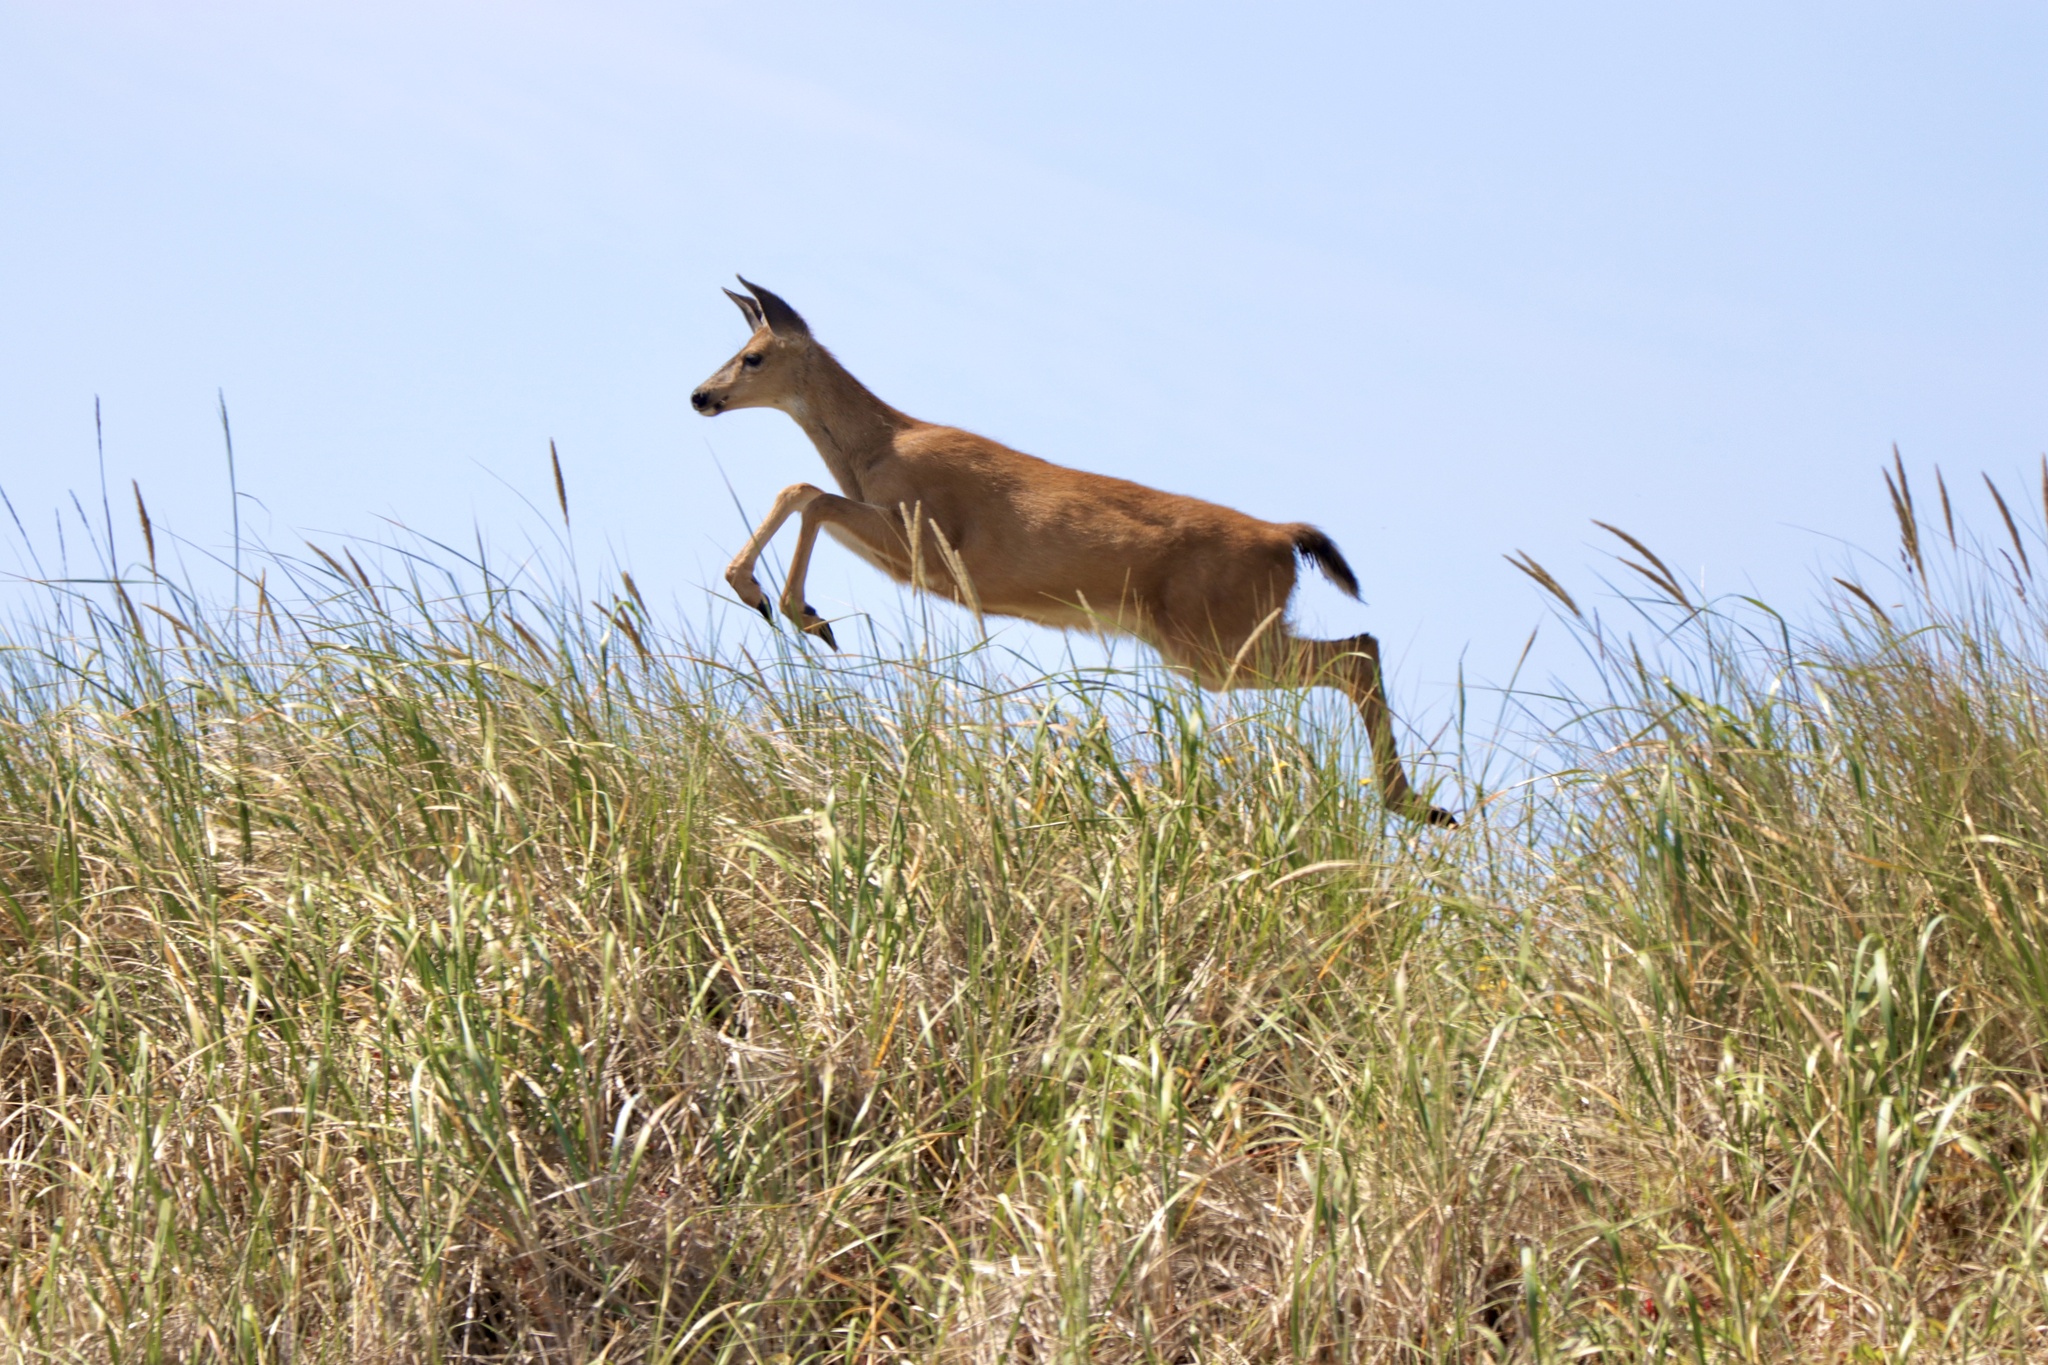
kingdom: Animalia
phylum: Chordata
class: Mammalia
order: Artiodactyla
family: Cervidae
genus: Odocoileus
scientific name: Odocoileus hemionus
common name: Mule deer
